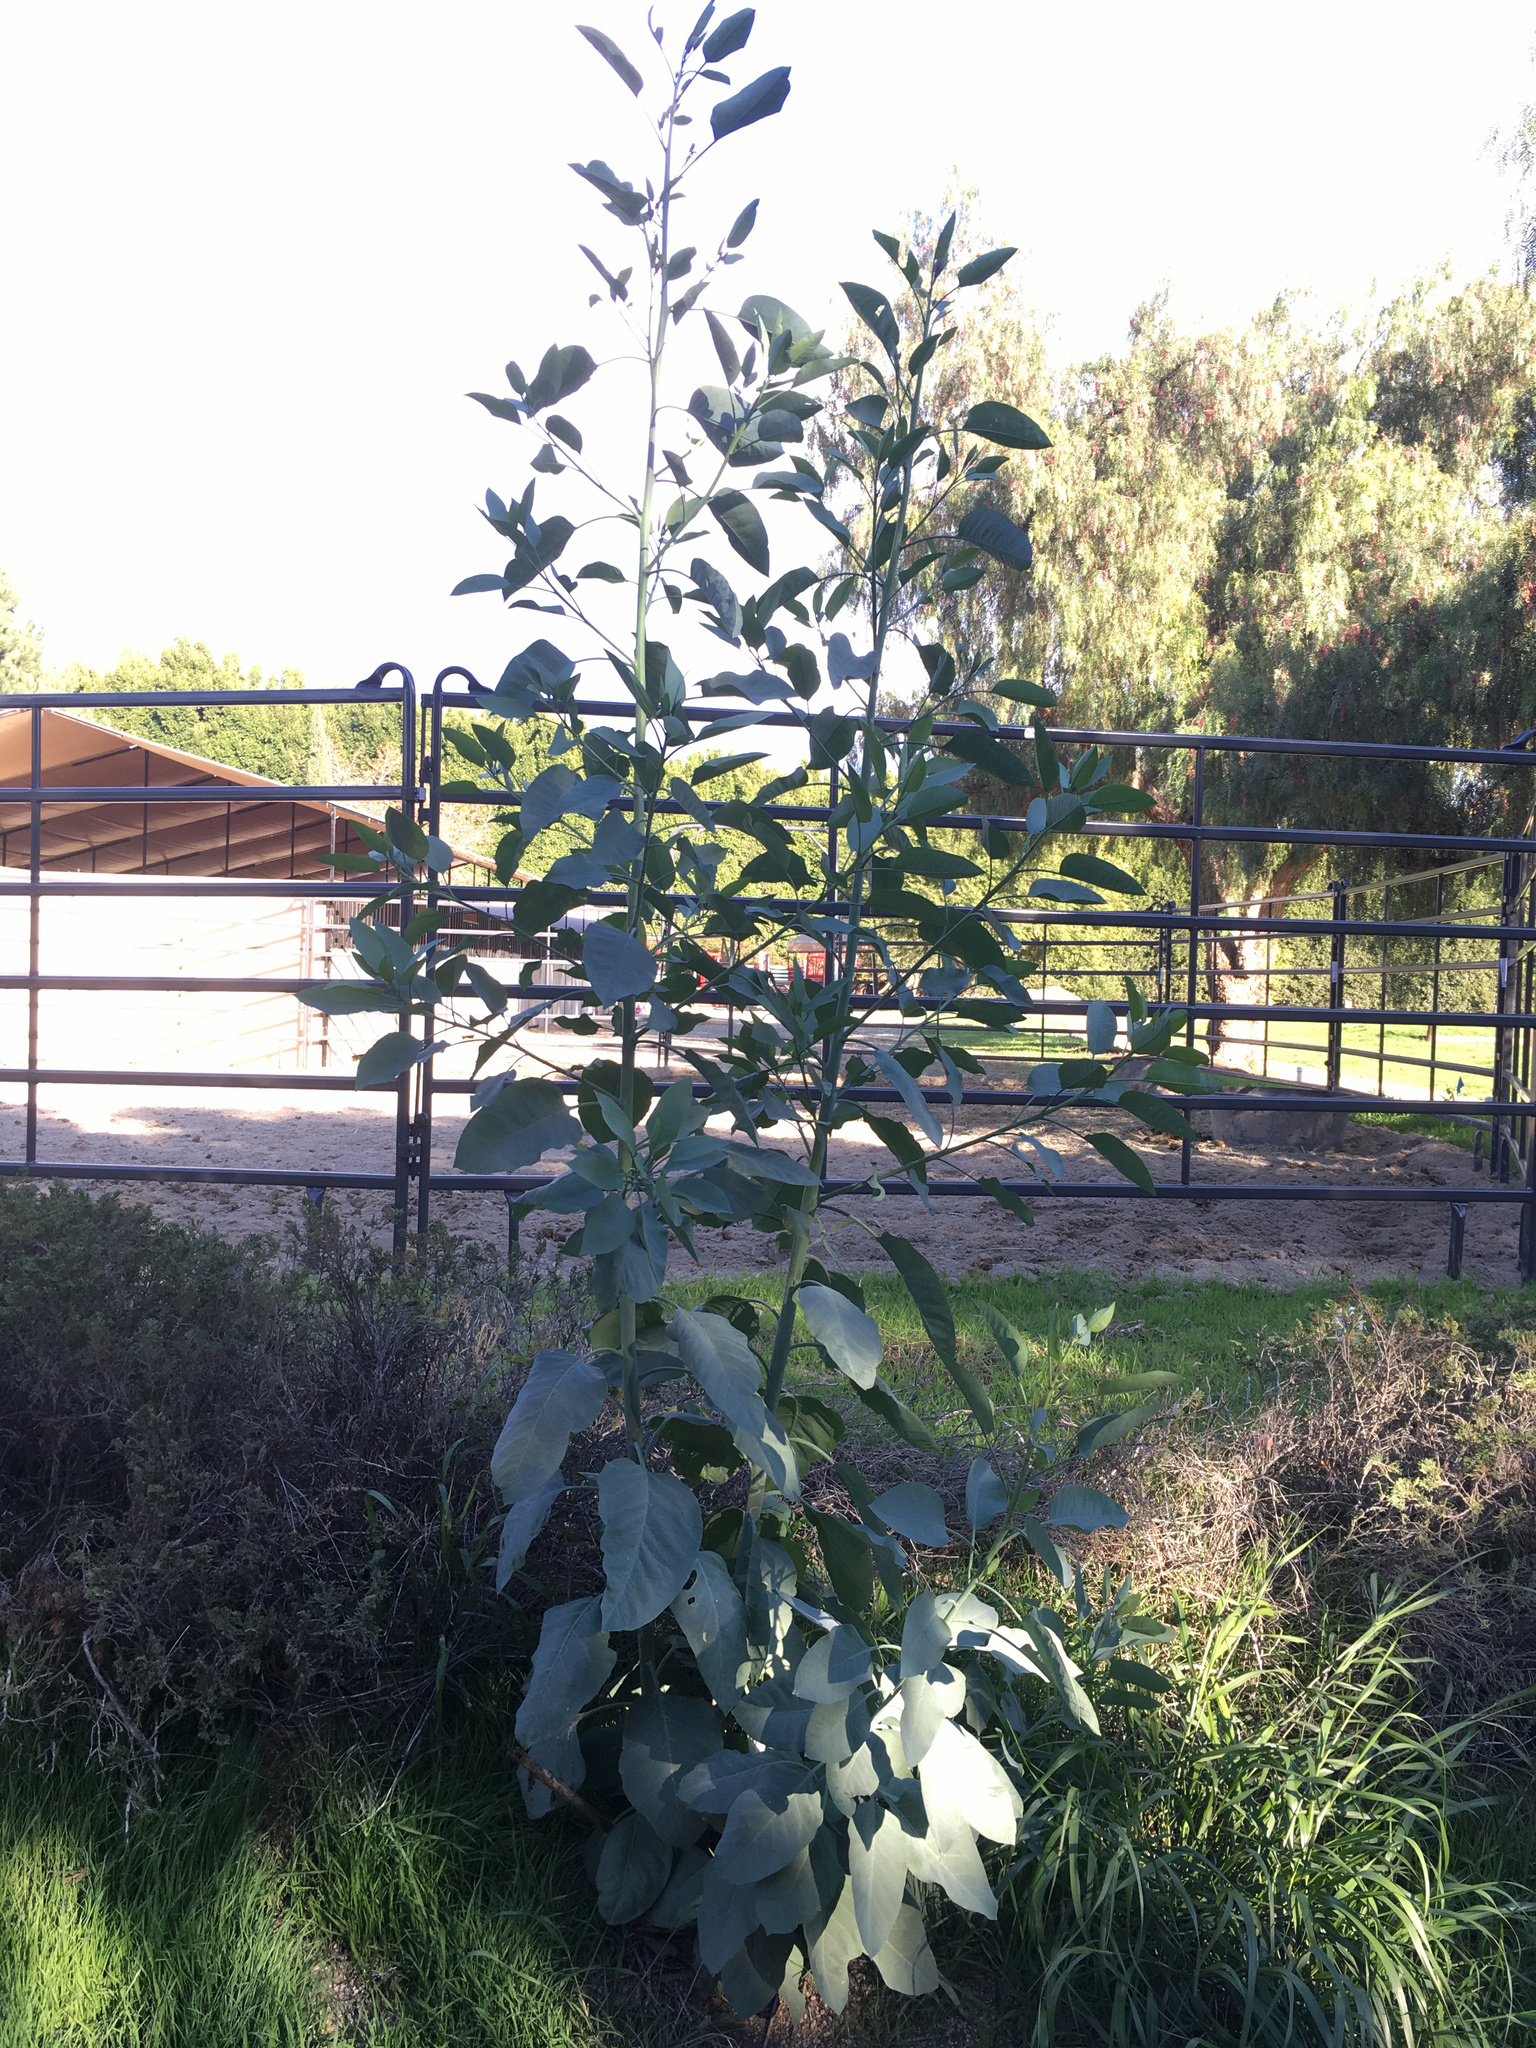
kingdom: Plantae
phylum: Tracheophyta
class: Magnoliopsida
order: Solanales
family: Solanaceae
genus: Nicotiana
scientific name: Nicotiana glauca
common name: Tree tobacco
